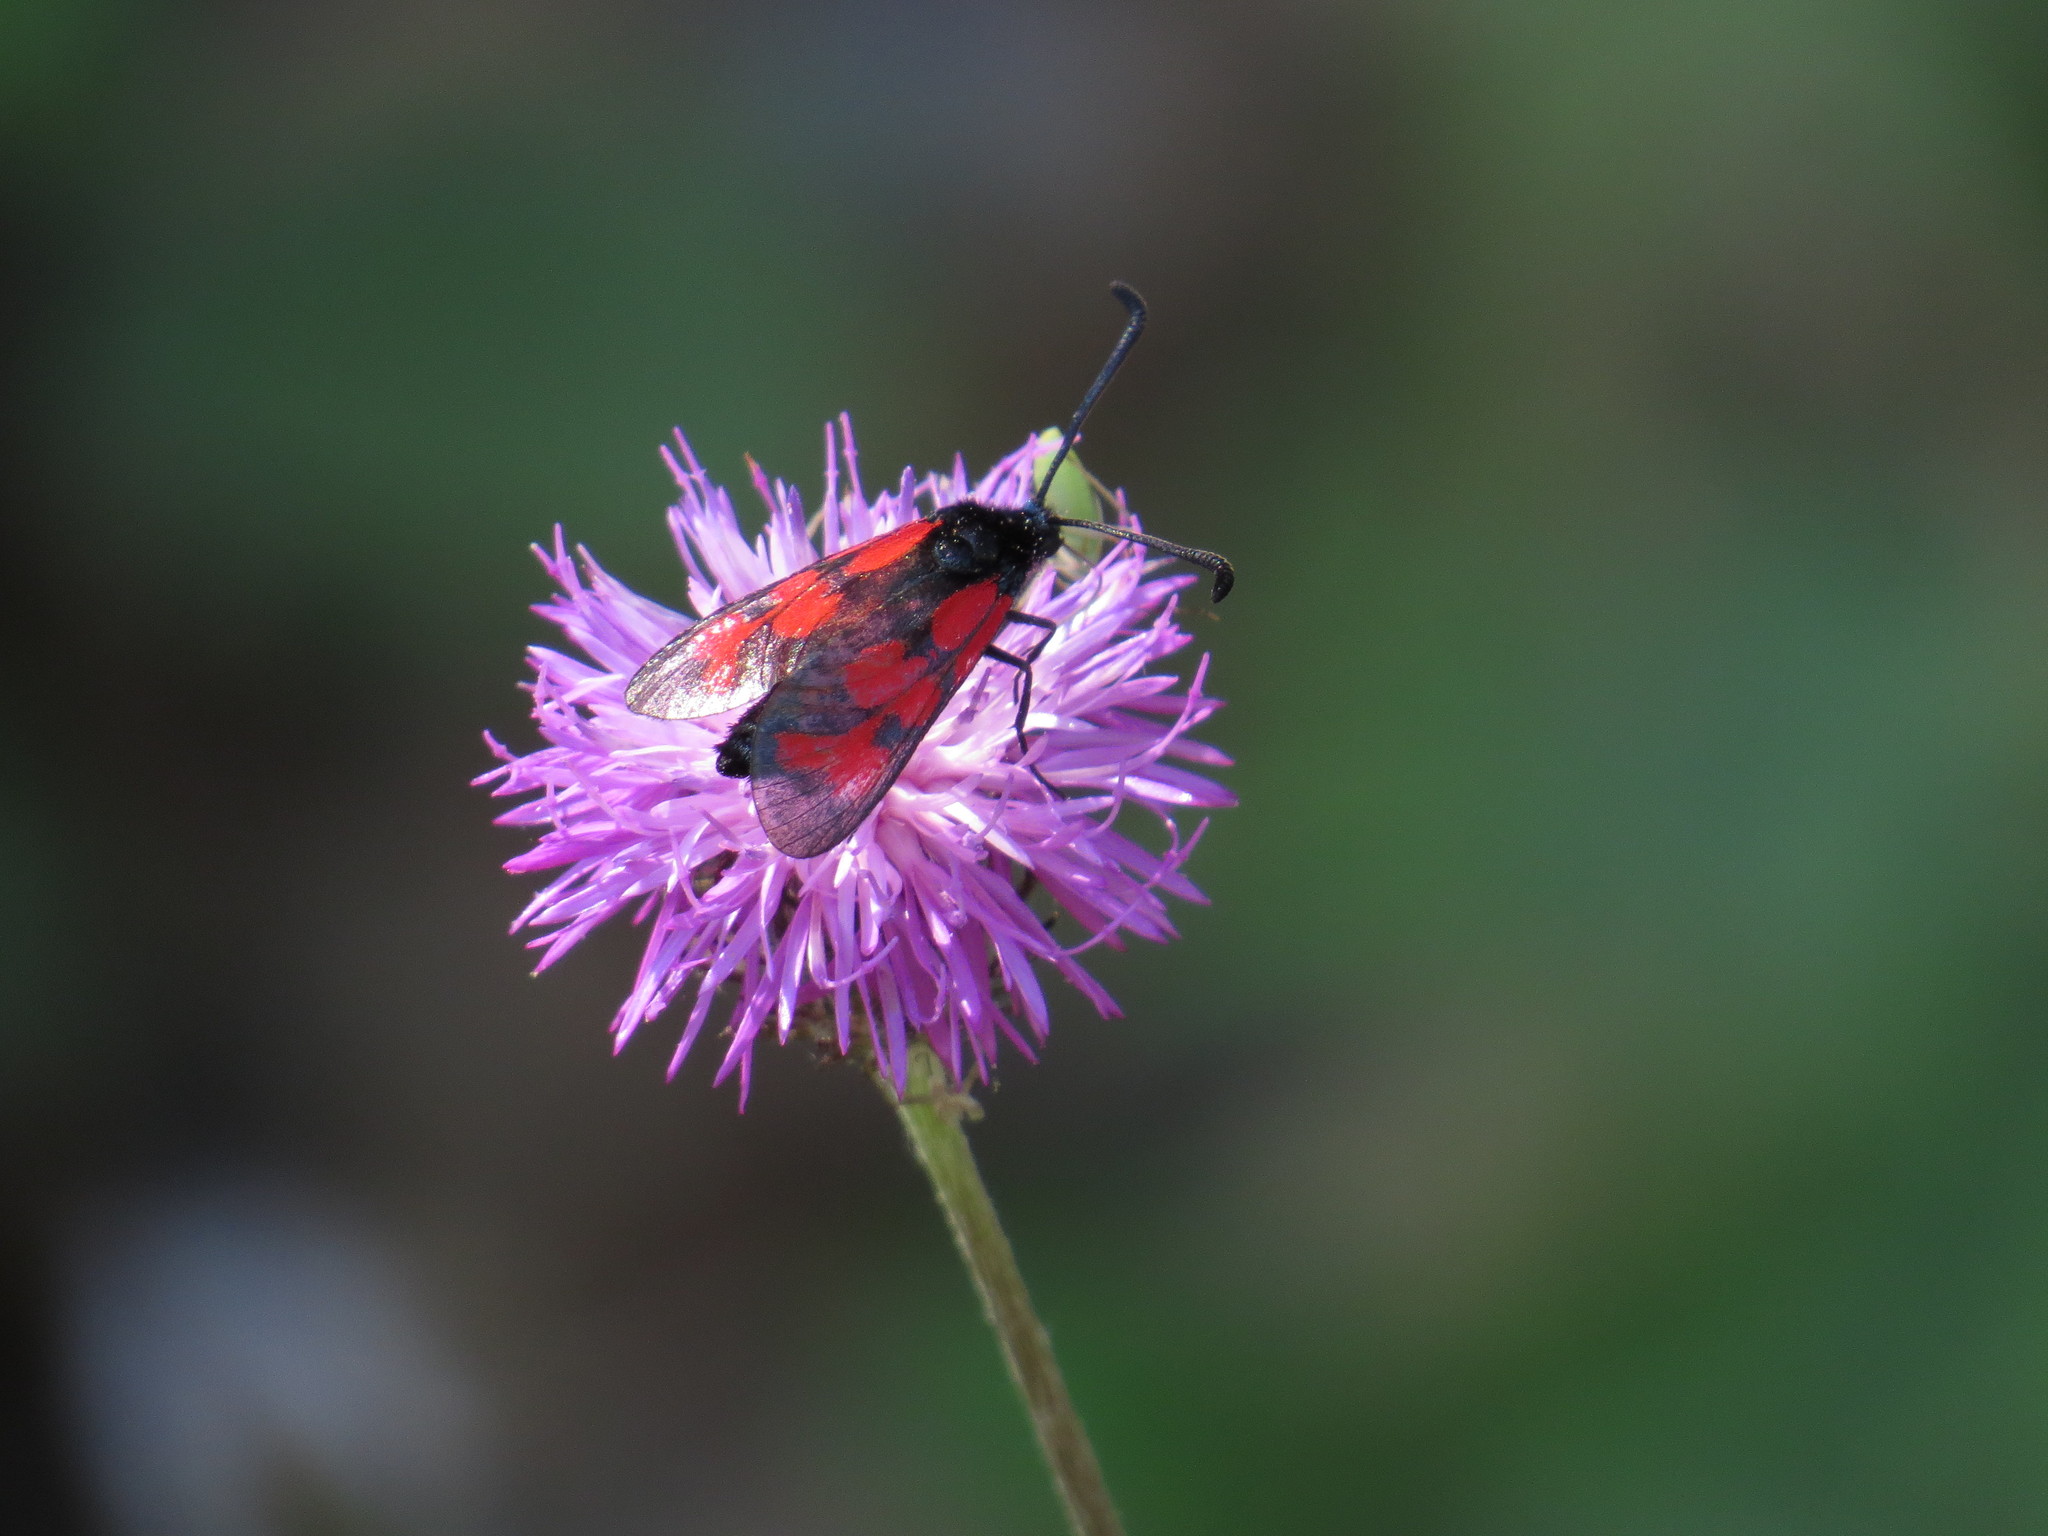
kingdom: Animalia
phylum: Arthropoda
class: Insecta
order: Lepidoptera
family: Zygaenidae
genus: Zygaena
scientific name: Zygaena loti
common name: Slender scotch burnet
